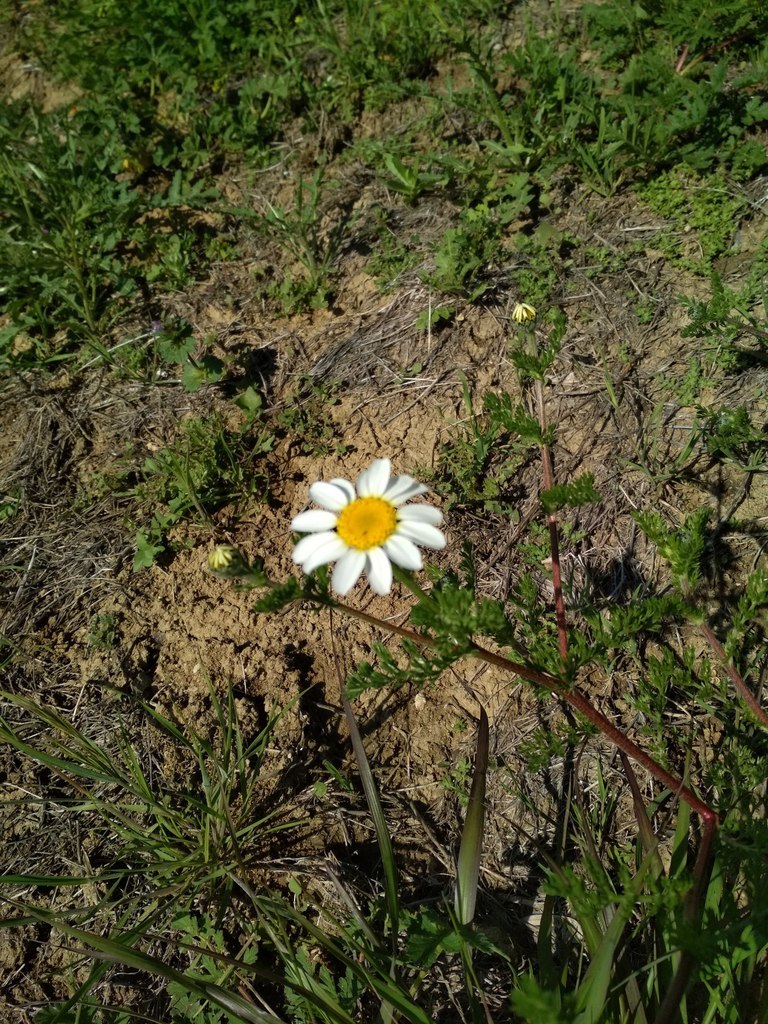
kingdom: Plantae
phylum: Tracheophyta
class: Magnoliopsida
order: Asterales
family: Asteraceae
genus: Anacyclus
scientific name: Anacyclus clavatus
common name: Whitebuttons
